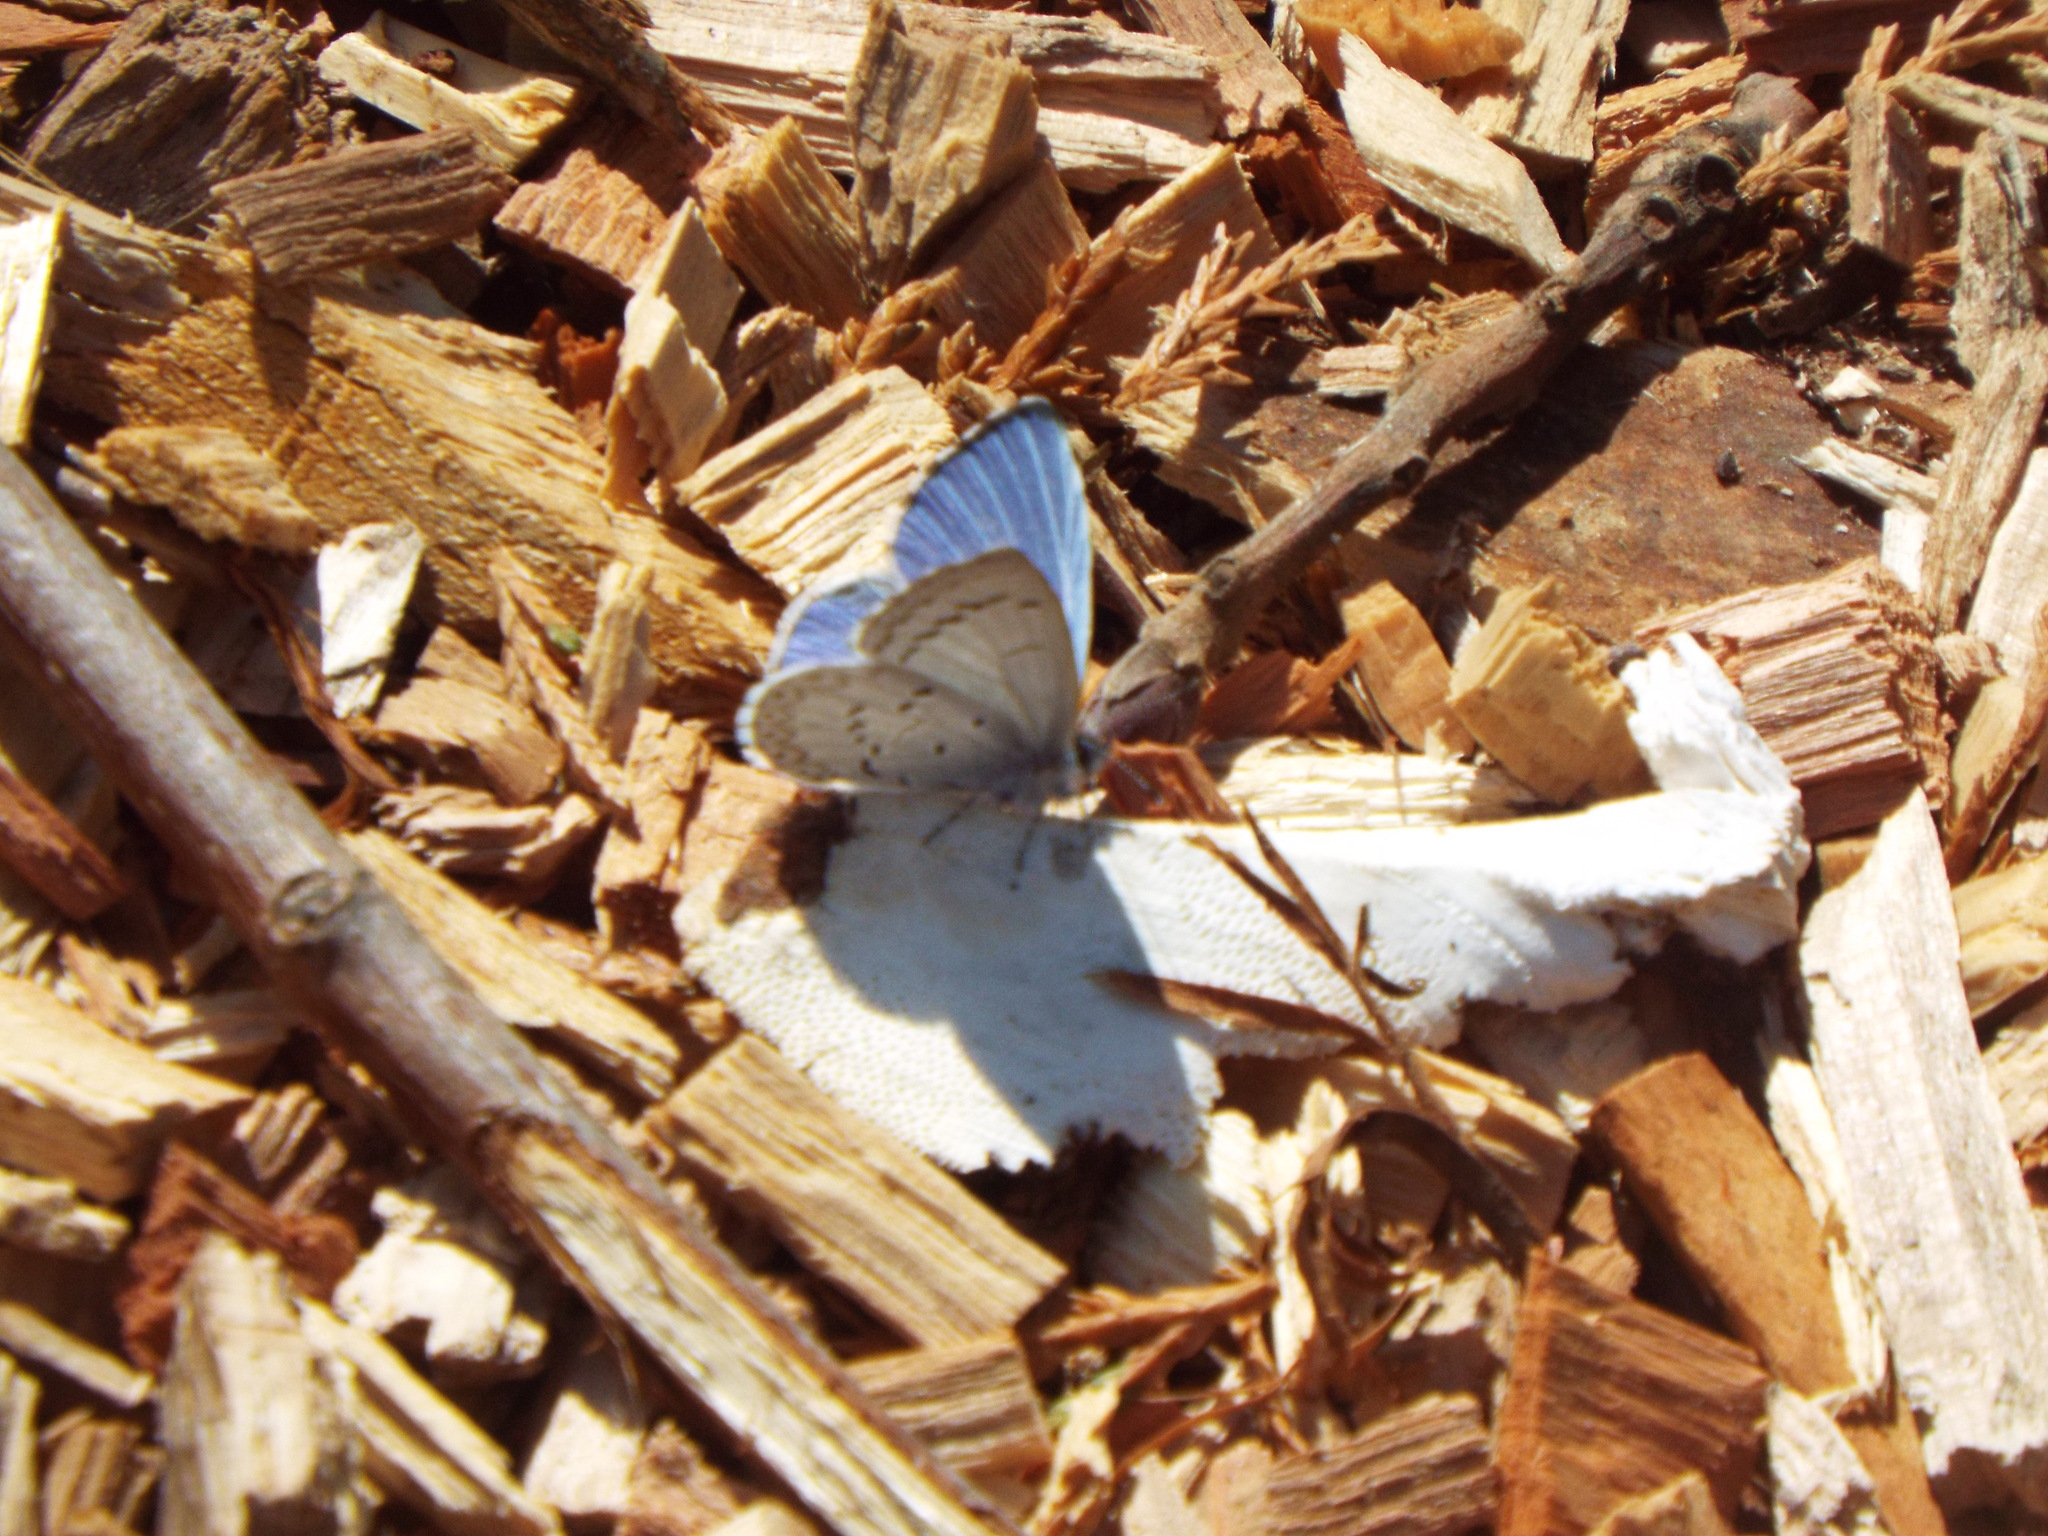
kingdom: Animalia
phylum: Arthropoda
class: Insecta
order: Lepidoptera
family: Lycaenidae
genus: Celastrina
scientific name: Celastrina ladon
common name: Spring azure
